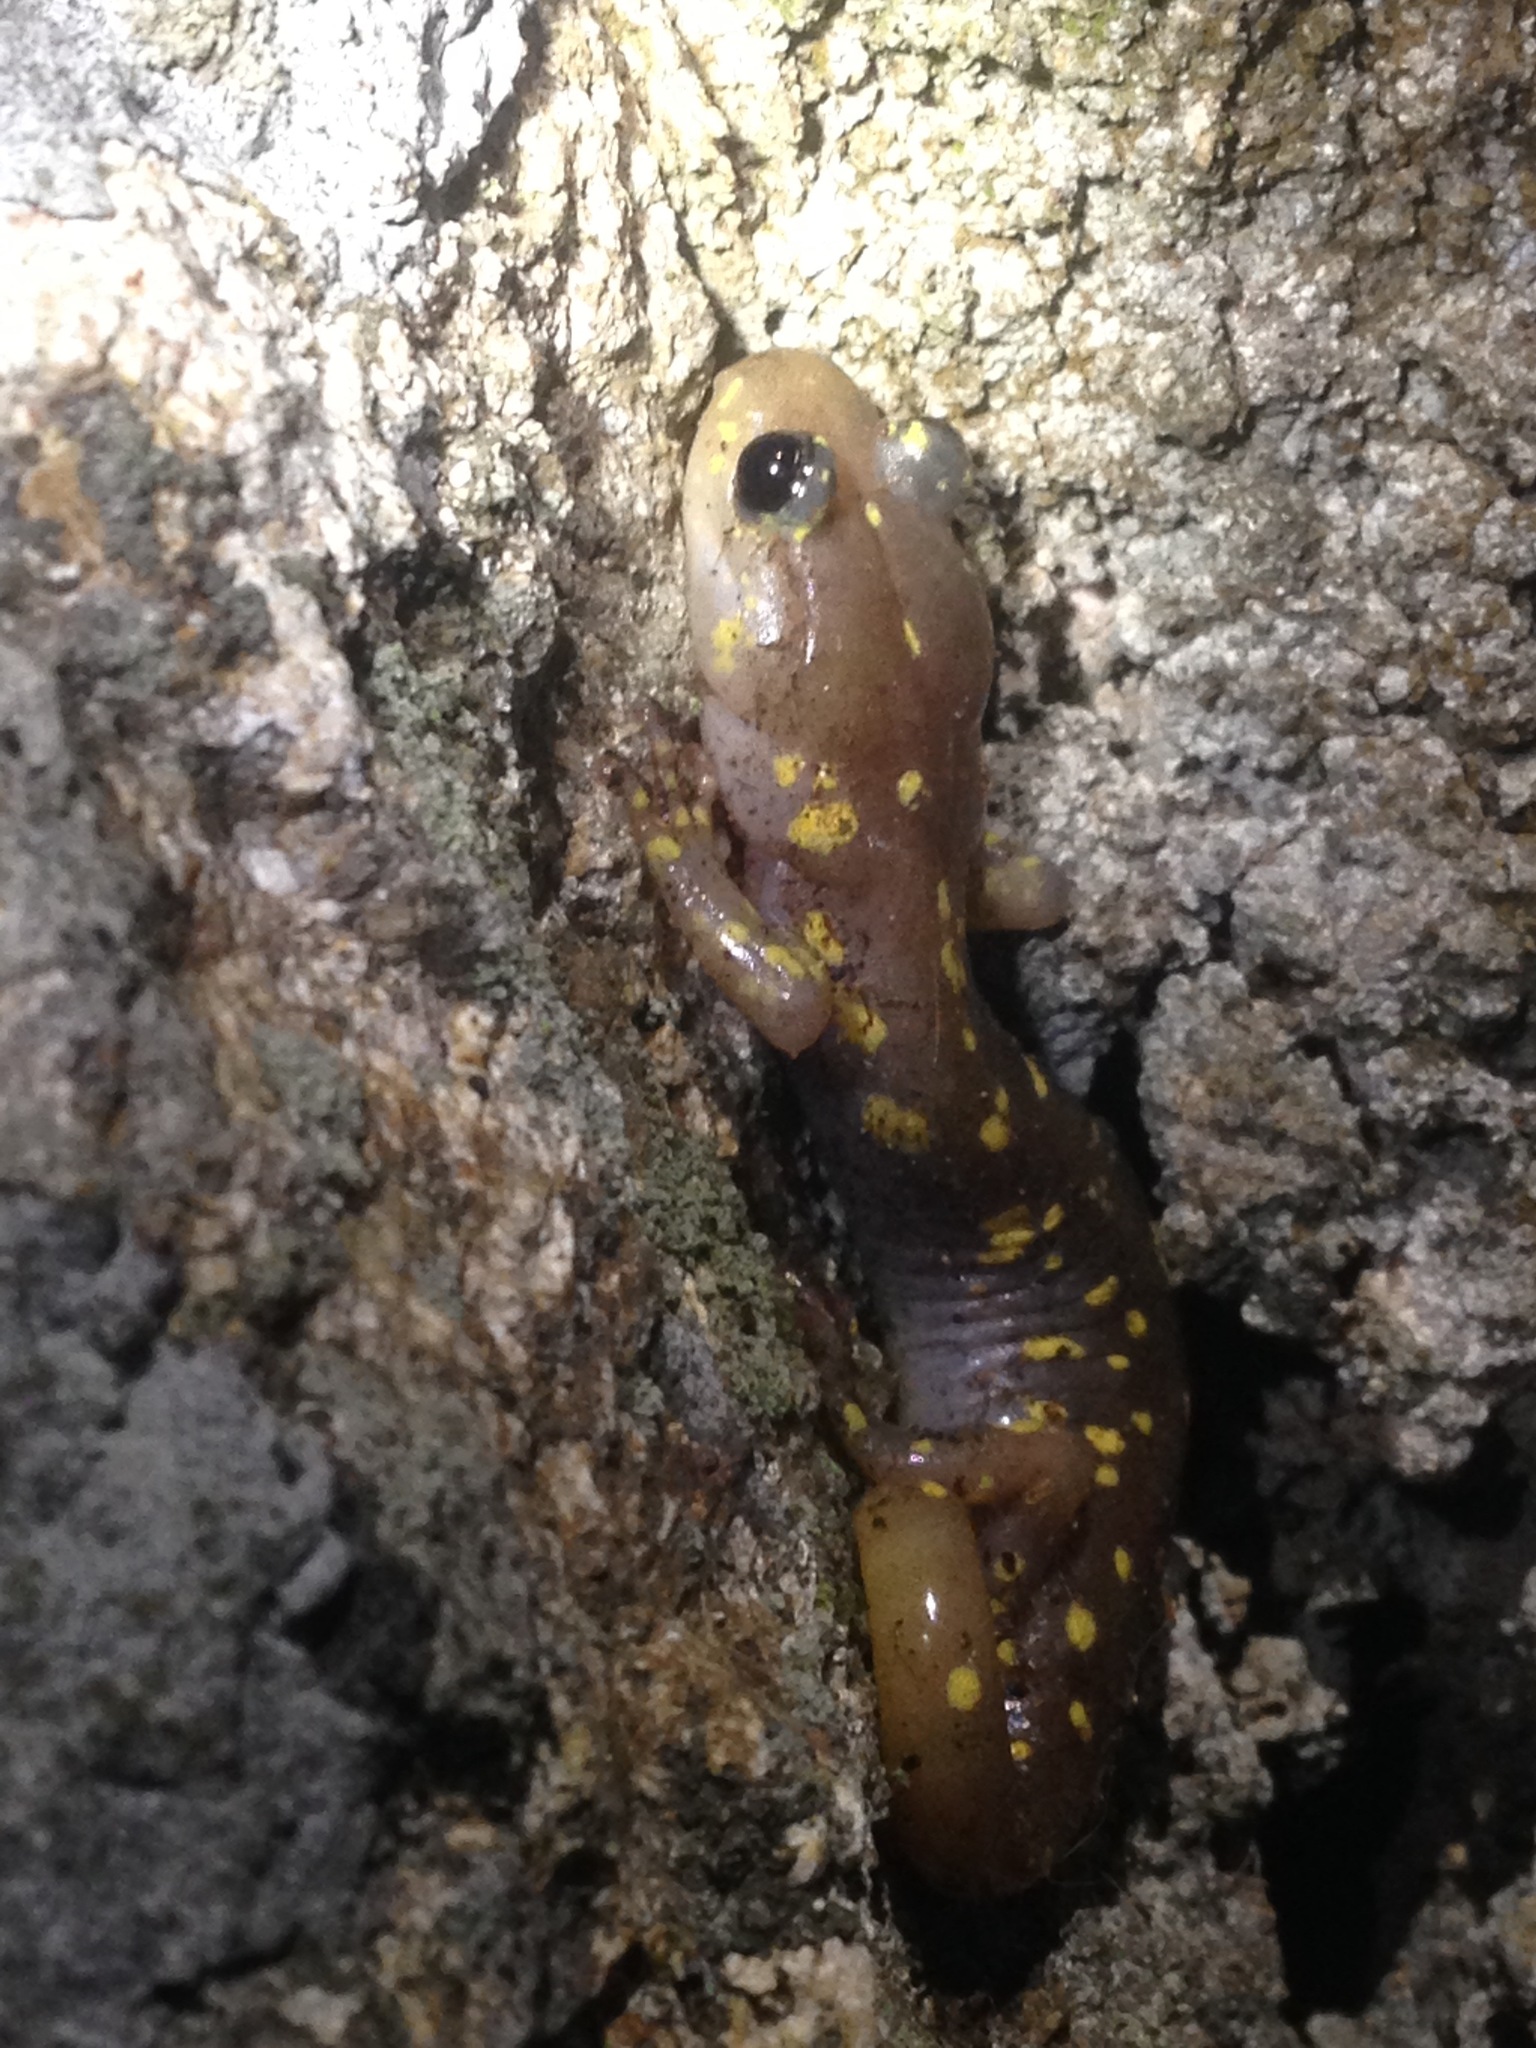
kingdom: Animalia
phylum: Chordata
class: Amphibia
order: Caudata
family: Plethodontidae
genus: Aneides
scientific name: Aneides lugubris
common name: Arboreal salamander
